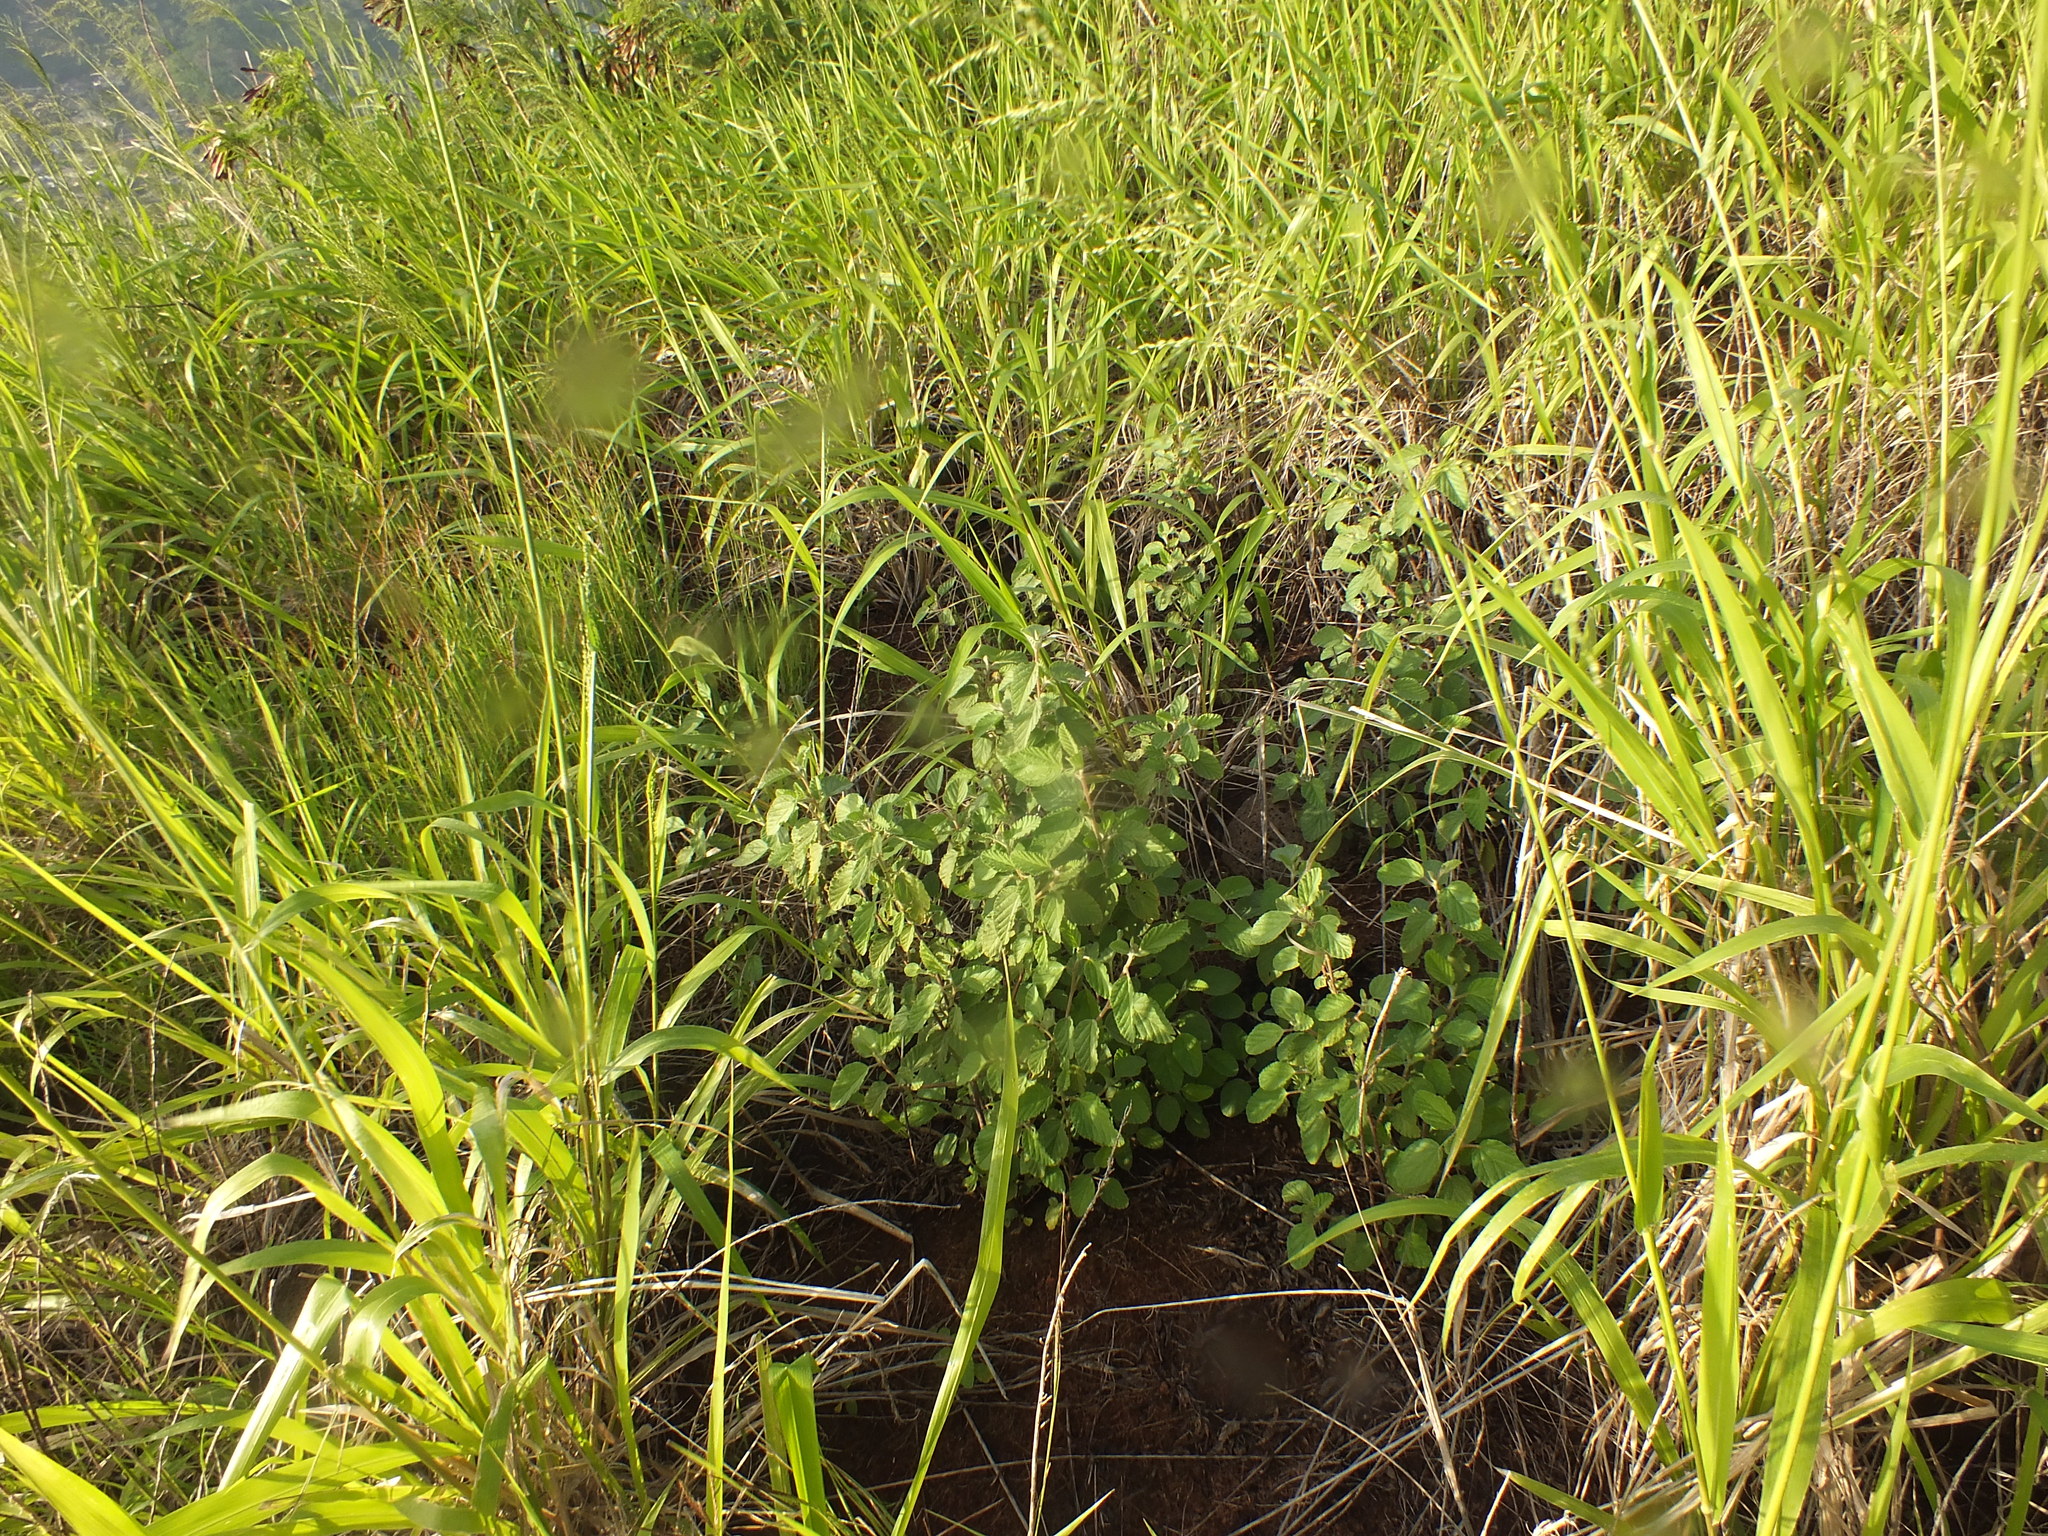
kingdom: Plantae
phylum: Tracheophyta
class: Magnoliopsida
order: Malvales
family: Malvaceae
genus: Waltheria
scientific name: Waltheria indica
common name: Leather-coat
